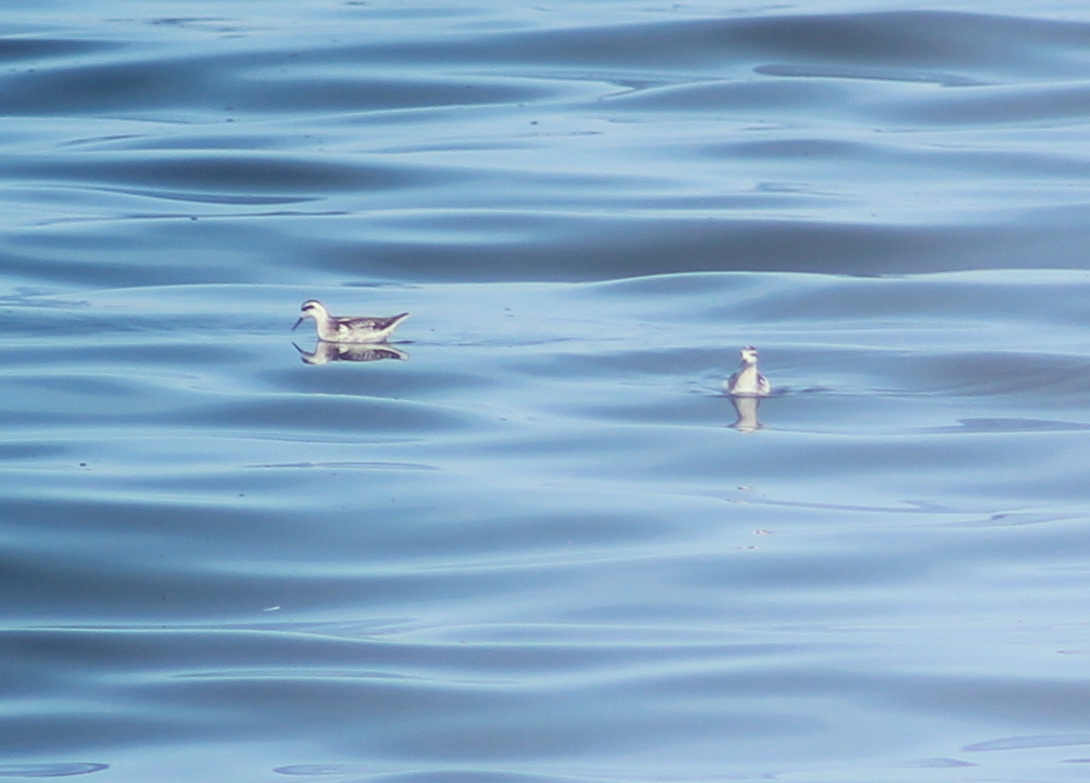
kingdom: Animalia
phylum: Chordata
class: Aves
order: Charadriiformes
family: Scolopacidae
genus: Phalaropus
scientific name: Phalaropus lobatus
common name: Red-necked phalarope
